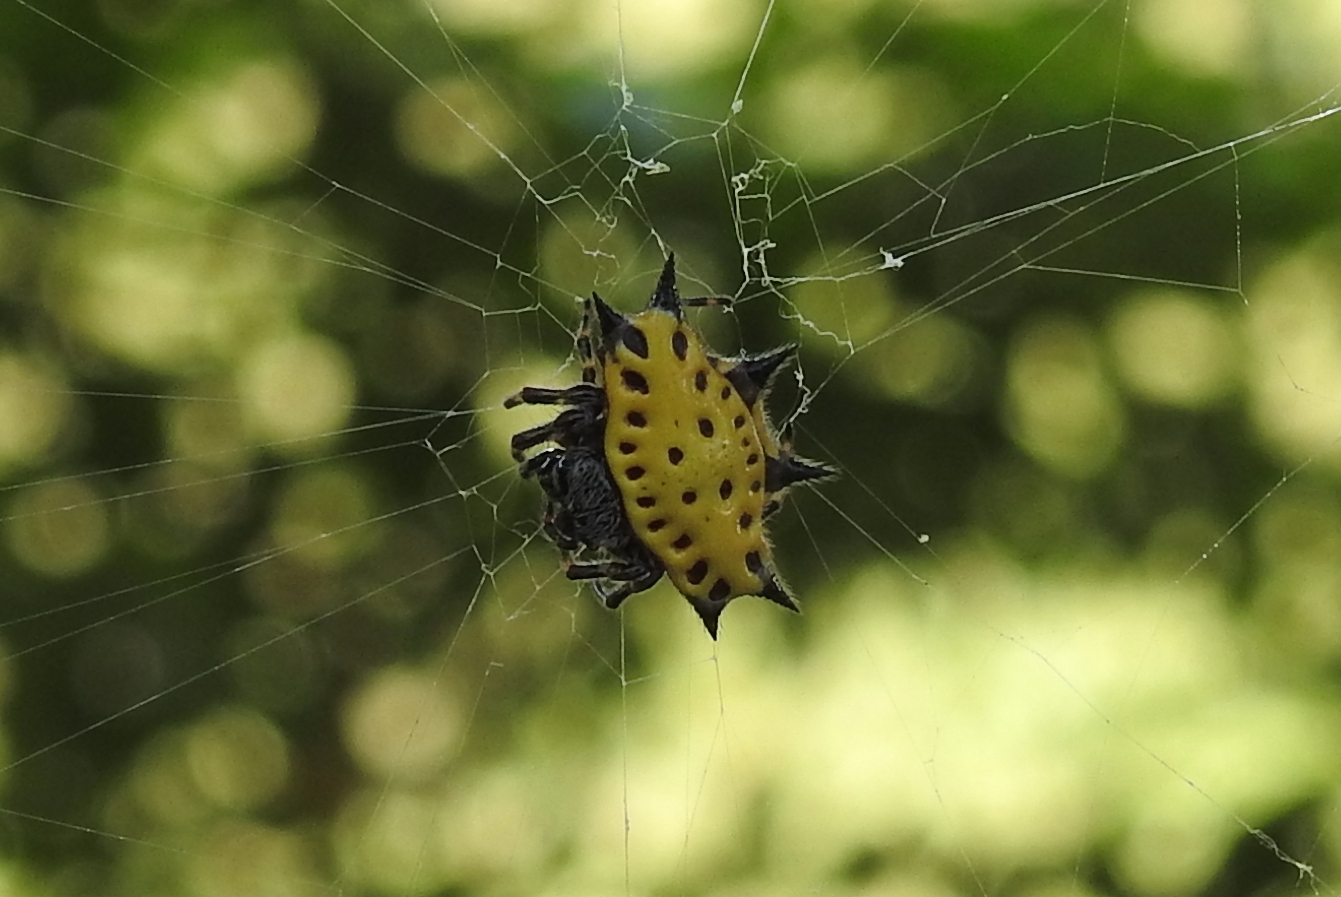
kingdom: Animalia
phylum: Arthropoda
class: Arachnida
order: Araneae
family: Araneidae
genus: Gasteracantha
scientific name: Gasteracantha cancriformis
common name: Orb weavers
